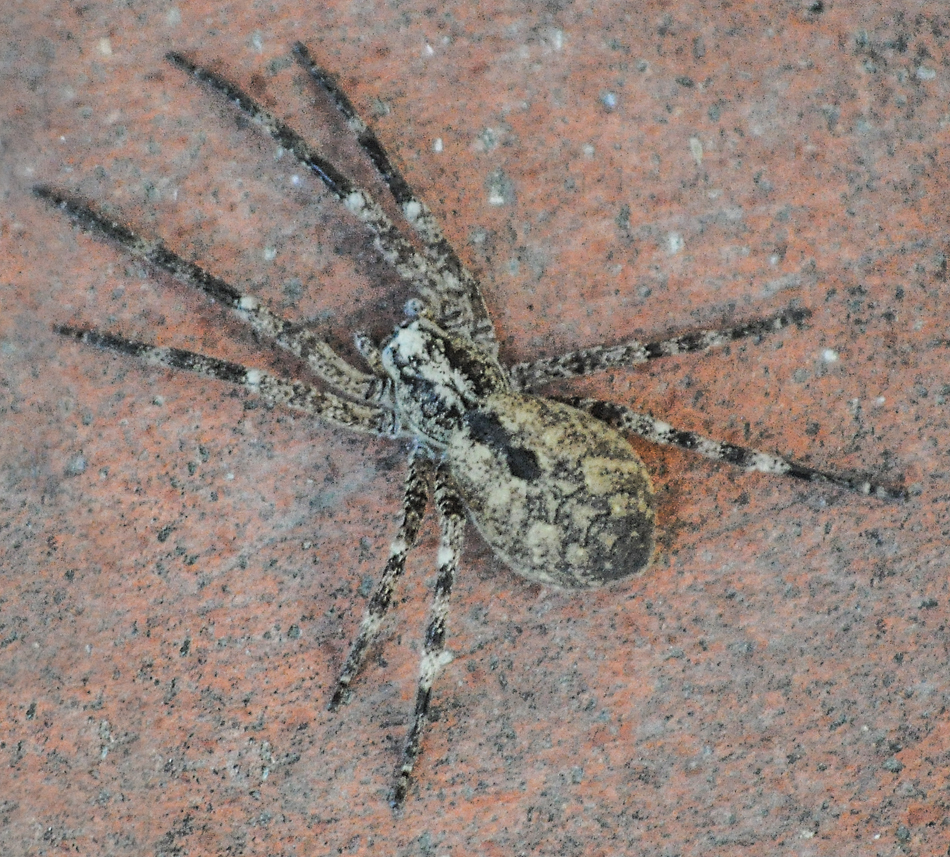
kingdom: Animalia
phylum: Arthropoda
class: Arachnida
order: Araneae
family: Zoropsidae
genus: Zoropsis
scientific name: Zoropsis spinimana
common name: Zoropsid spider
